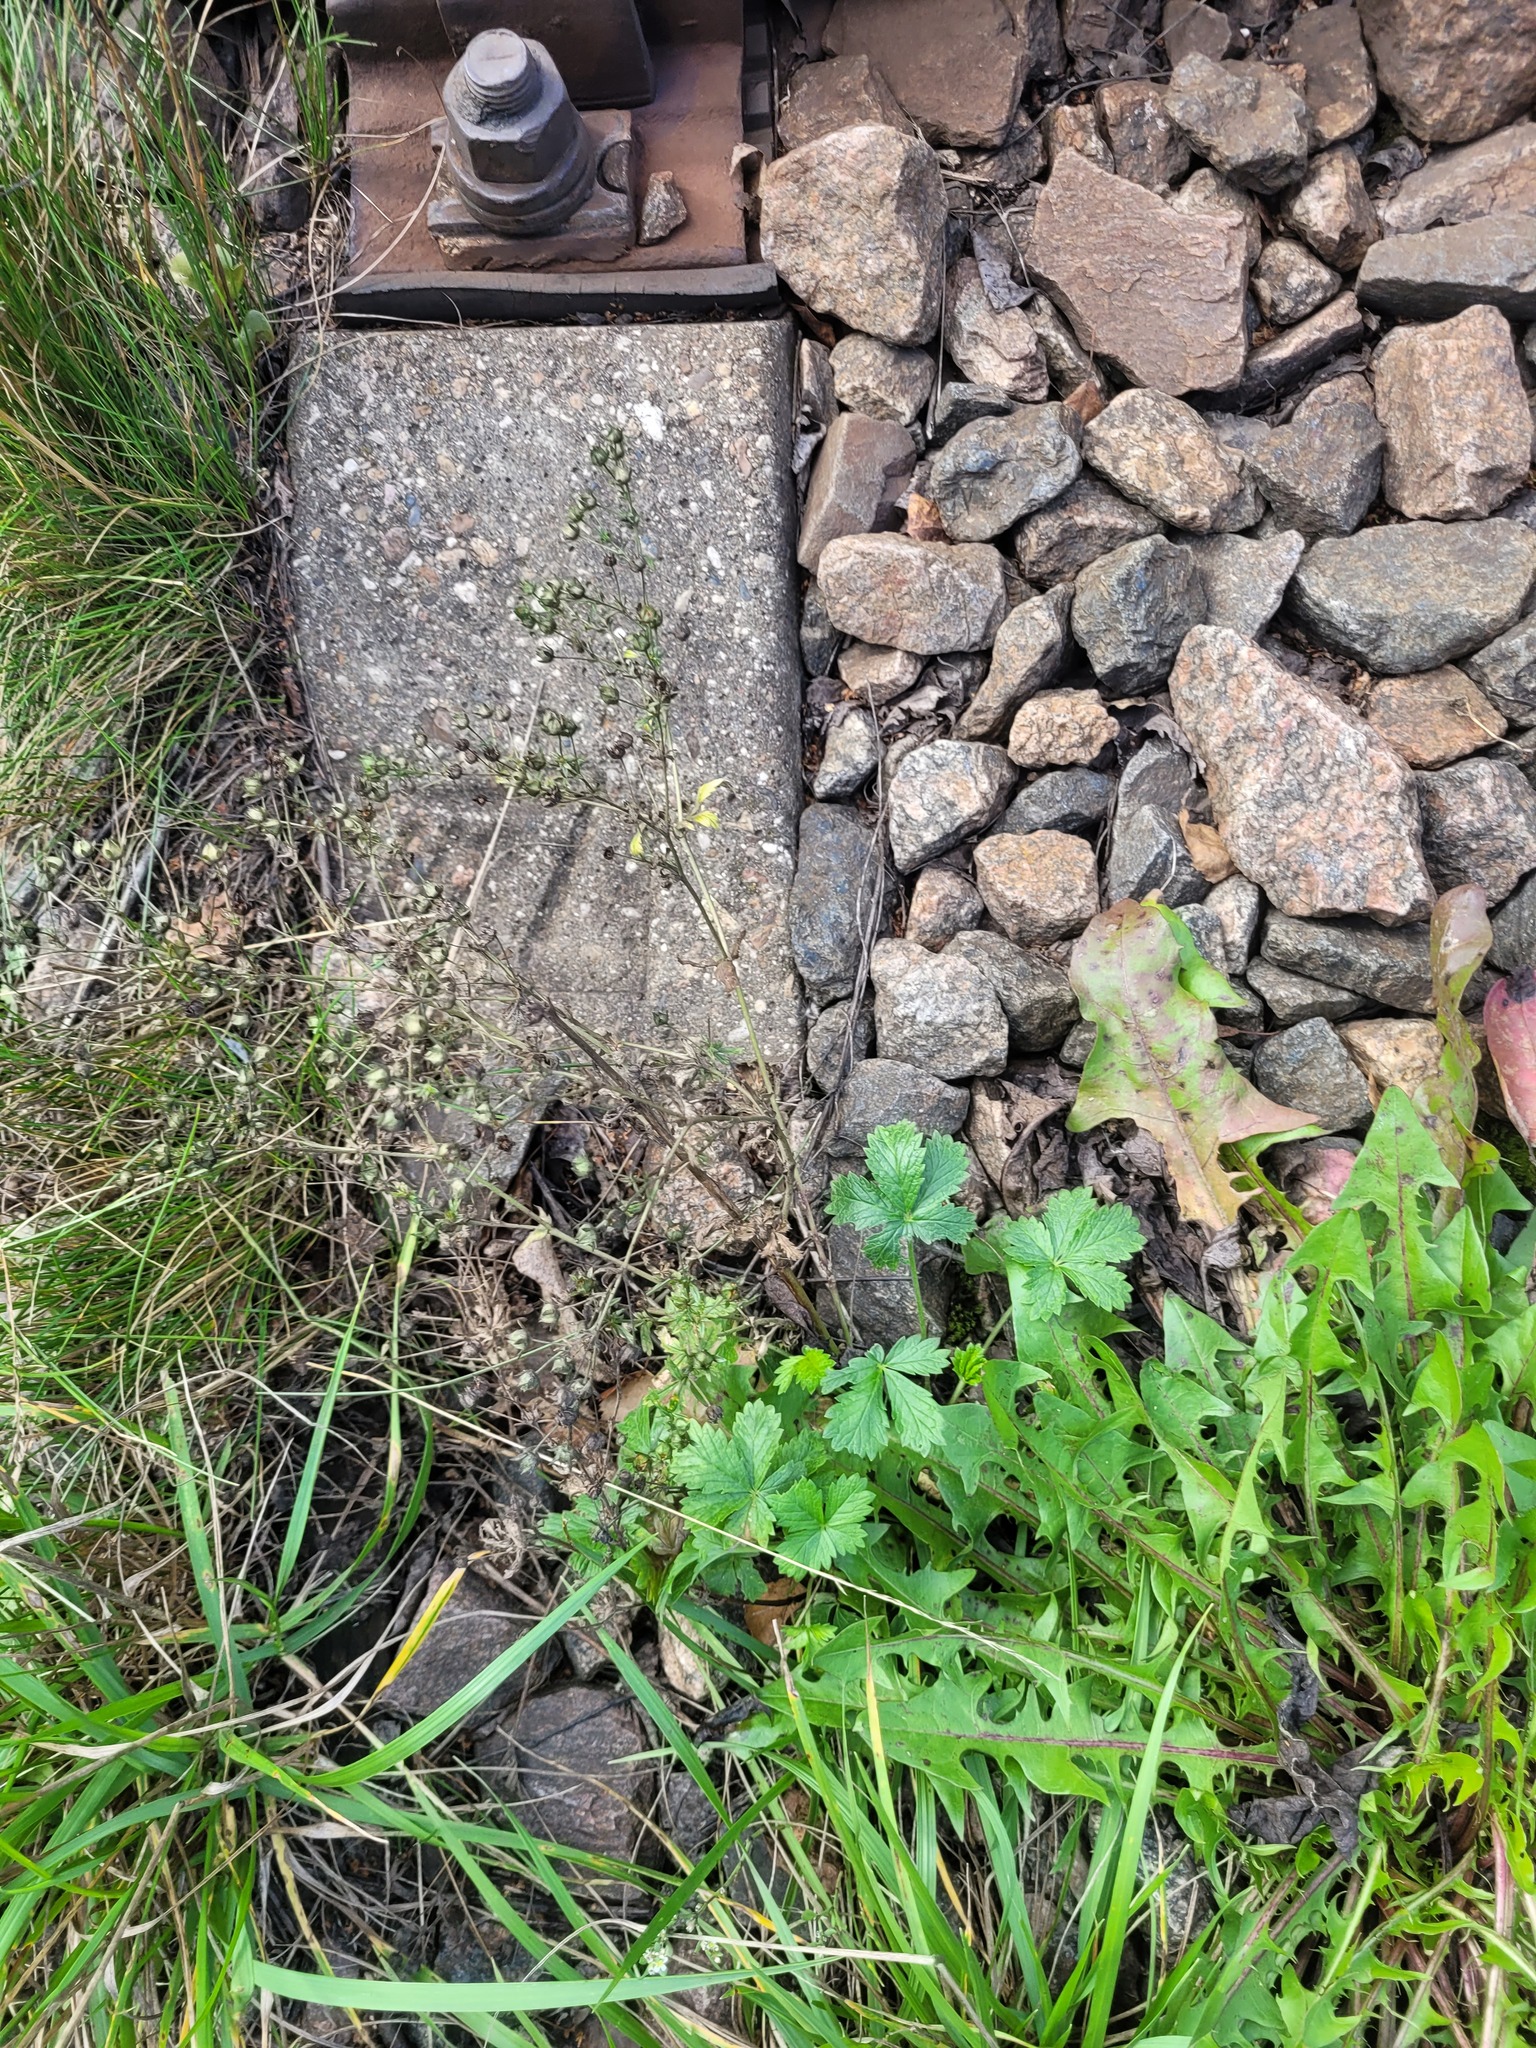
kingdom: Plantae
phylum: Tracheophyta
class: Magnoliopsida
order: Rosales
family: Rosaceae
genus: Potentilla
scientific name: Potentilla intermedia
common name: Downy cinquefoil
